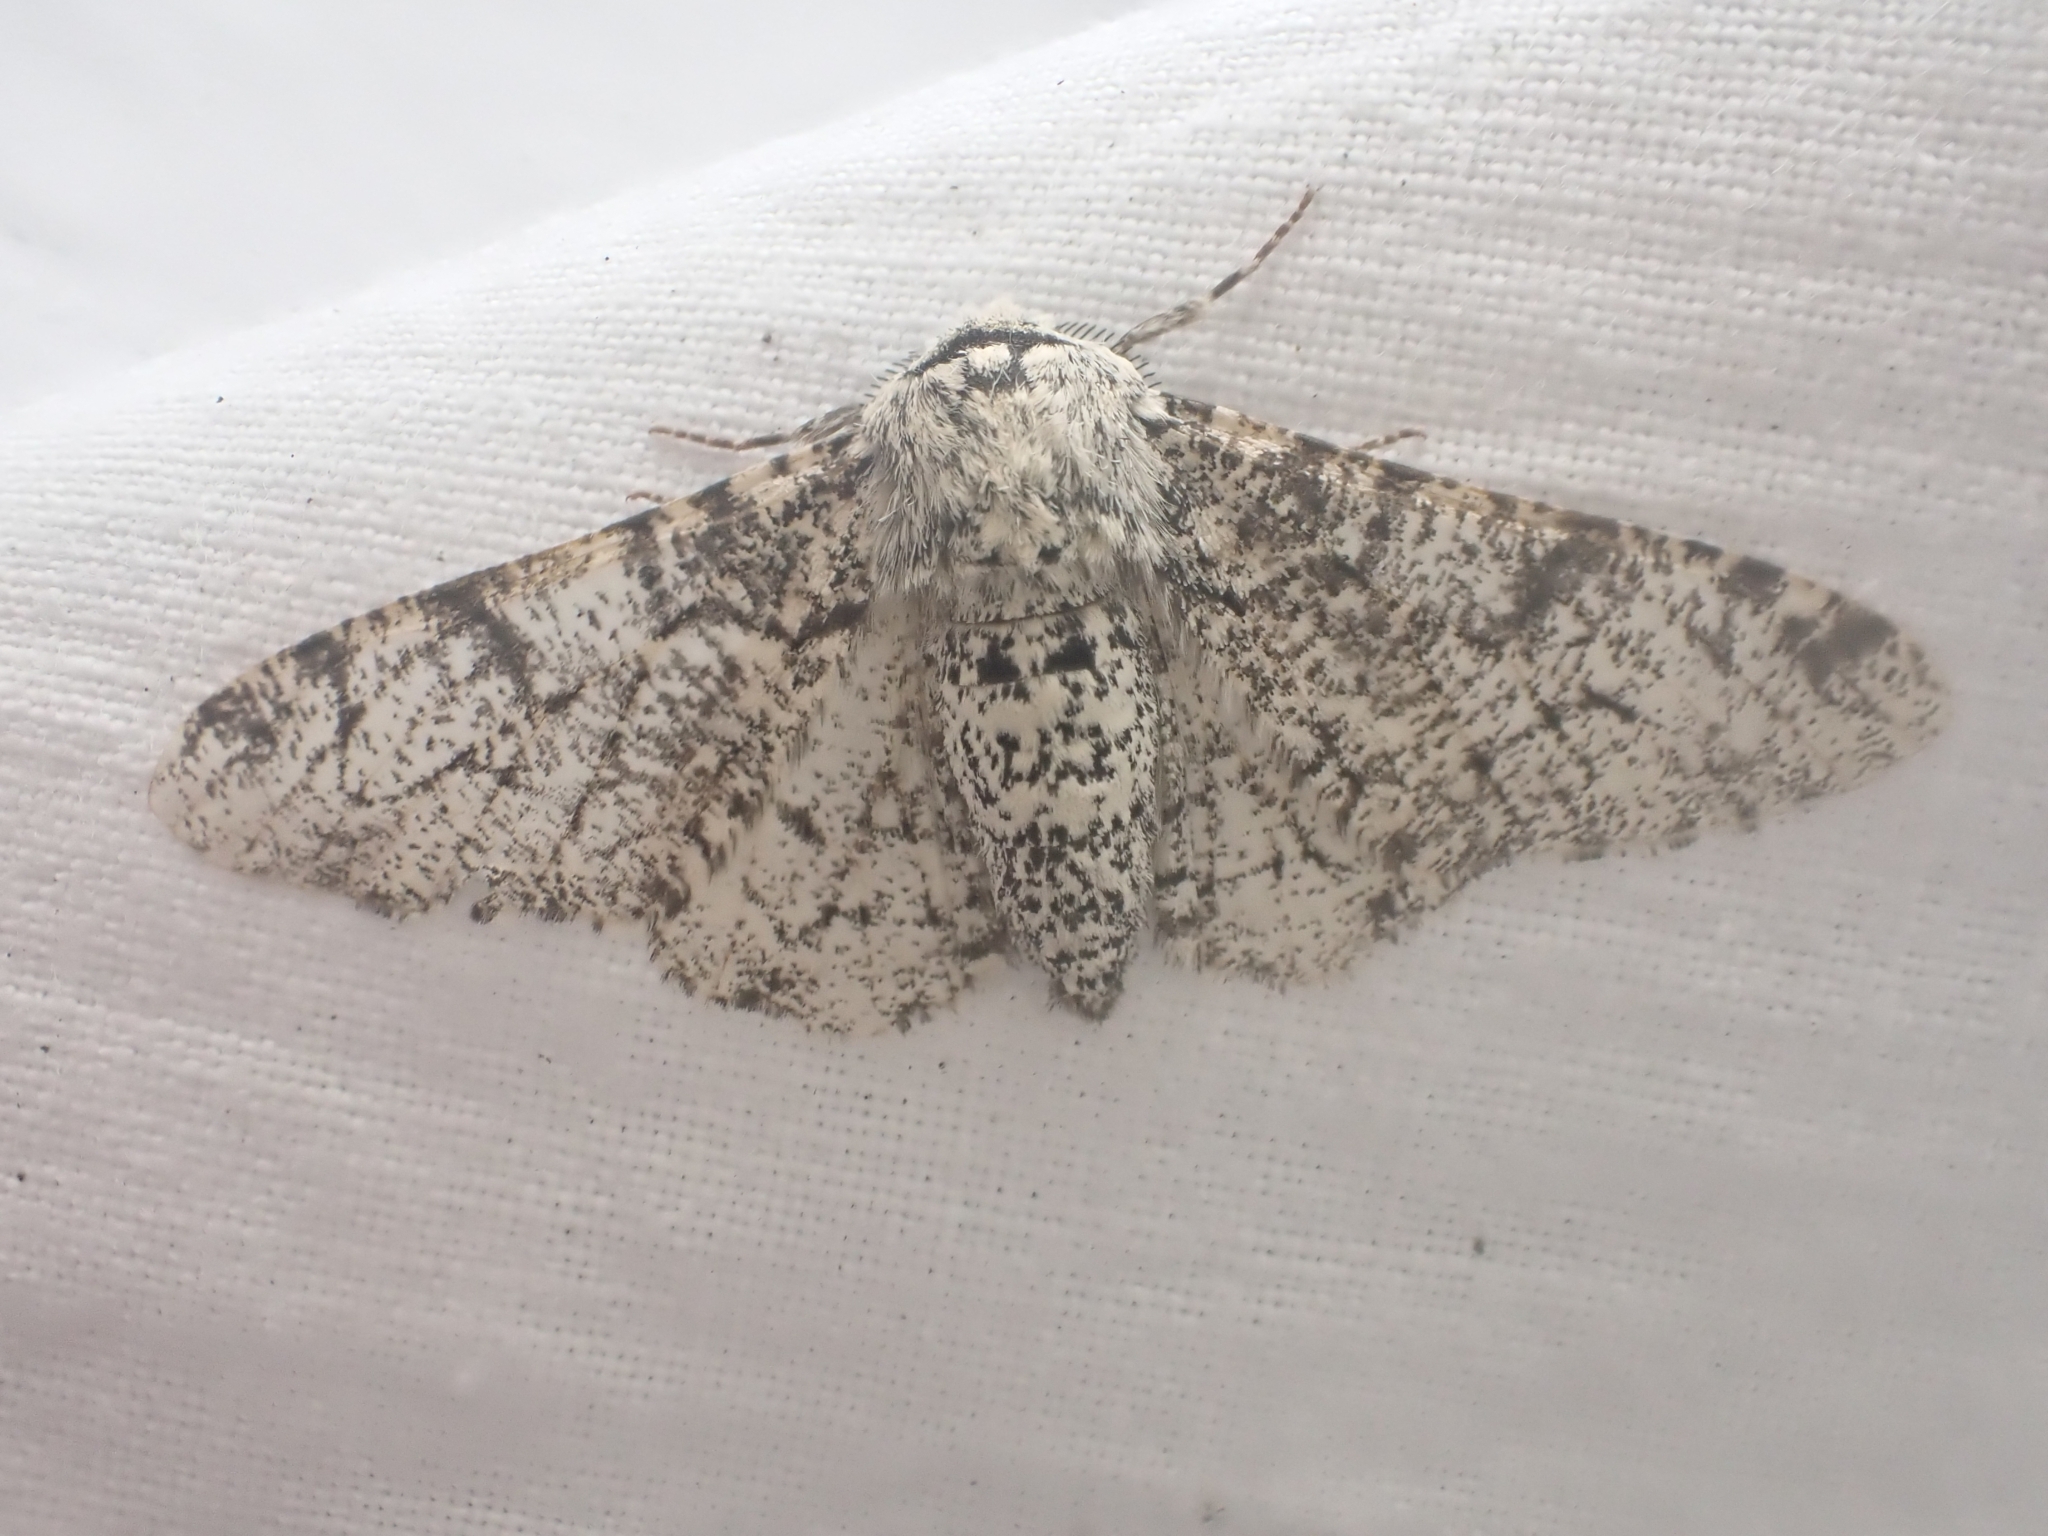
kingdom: Animalia
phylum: Arthropoda
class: Insecta
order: Lepidoptera
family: Geometridae
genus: Biston
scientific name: Biston betularia
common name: Peppered moth
